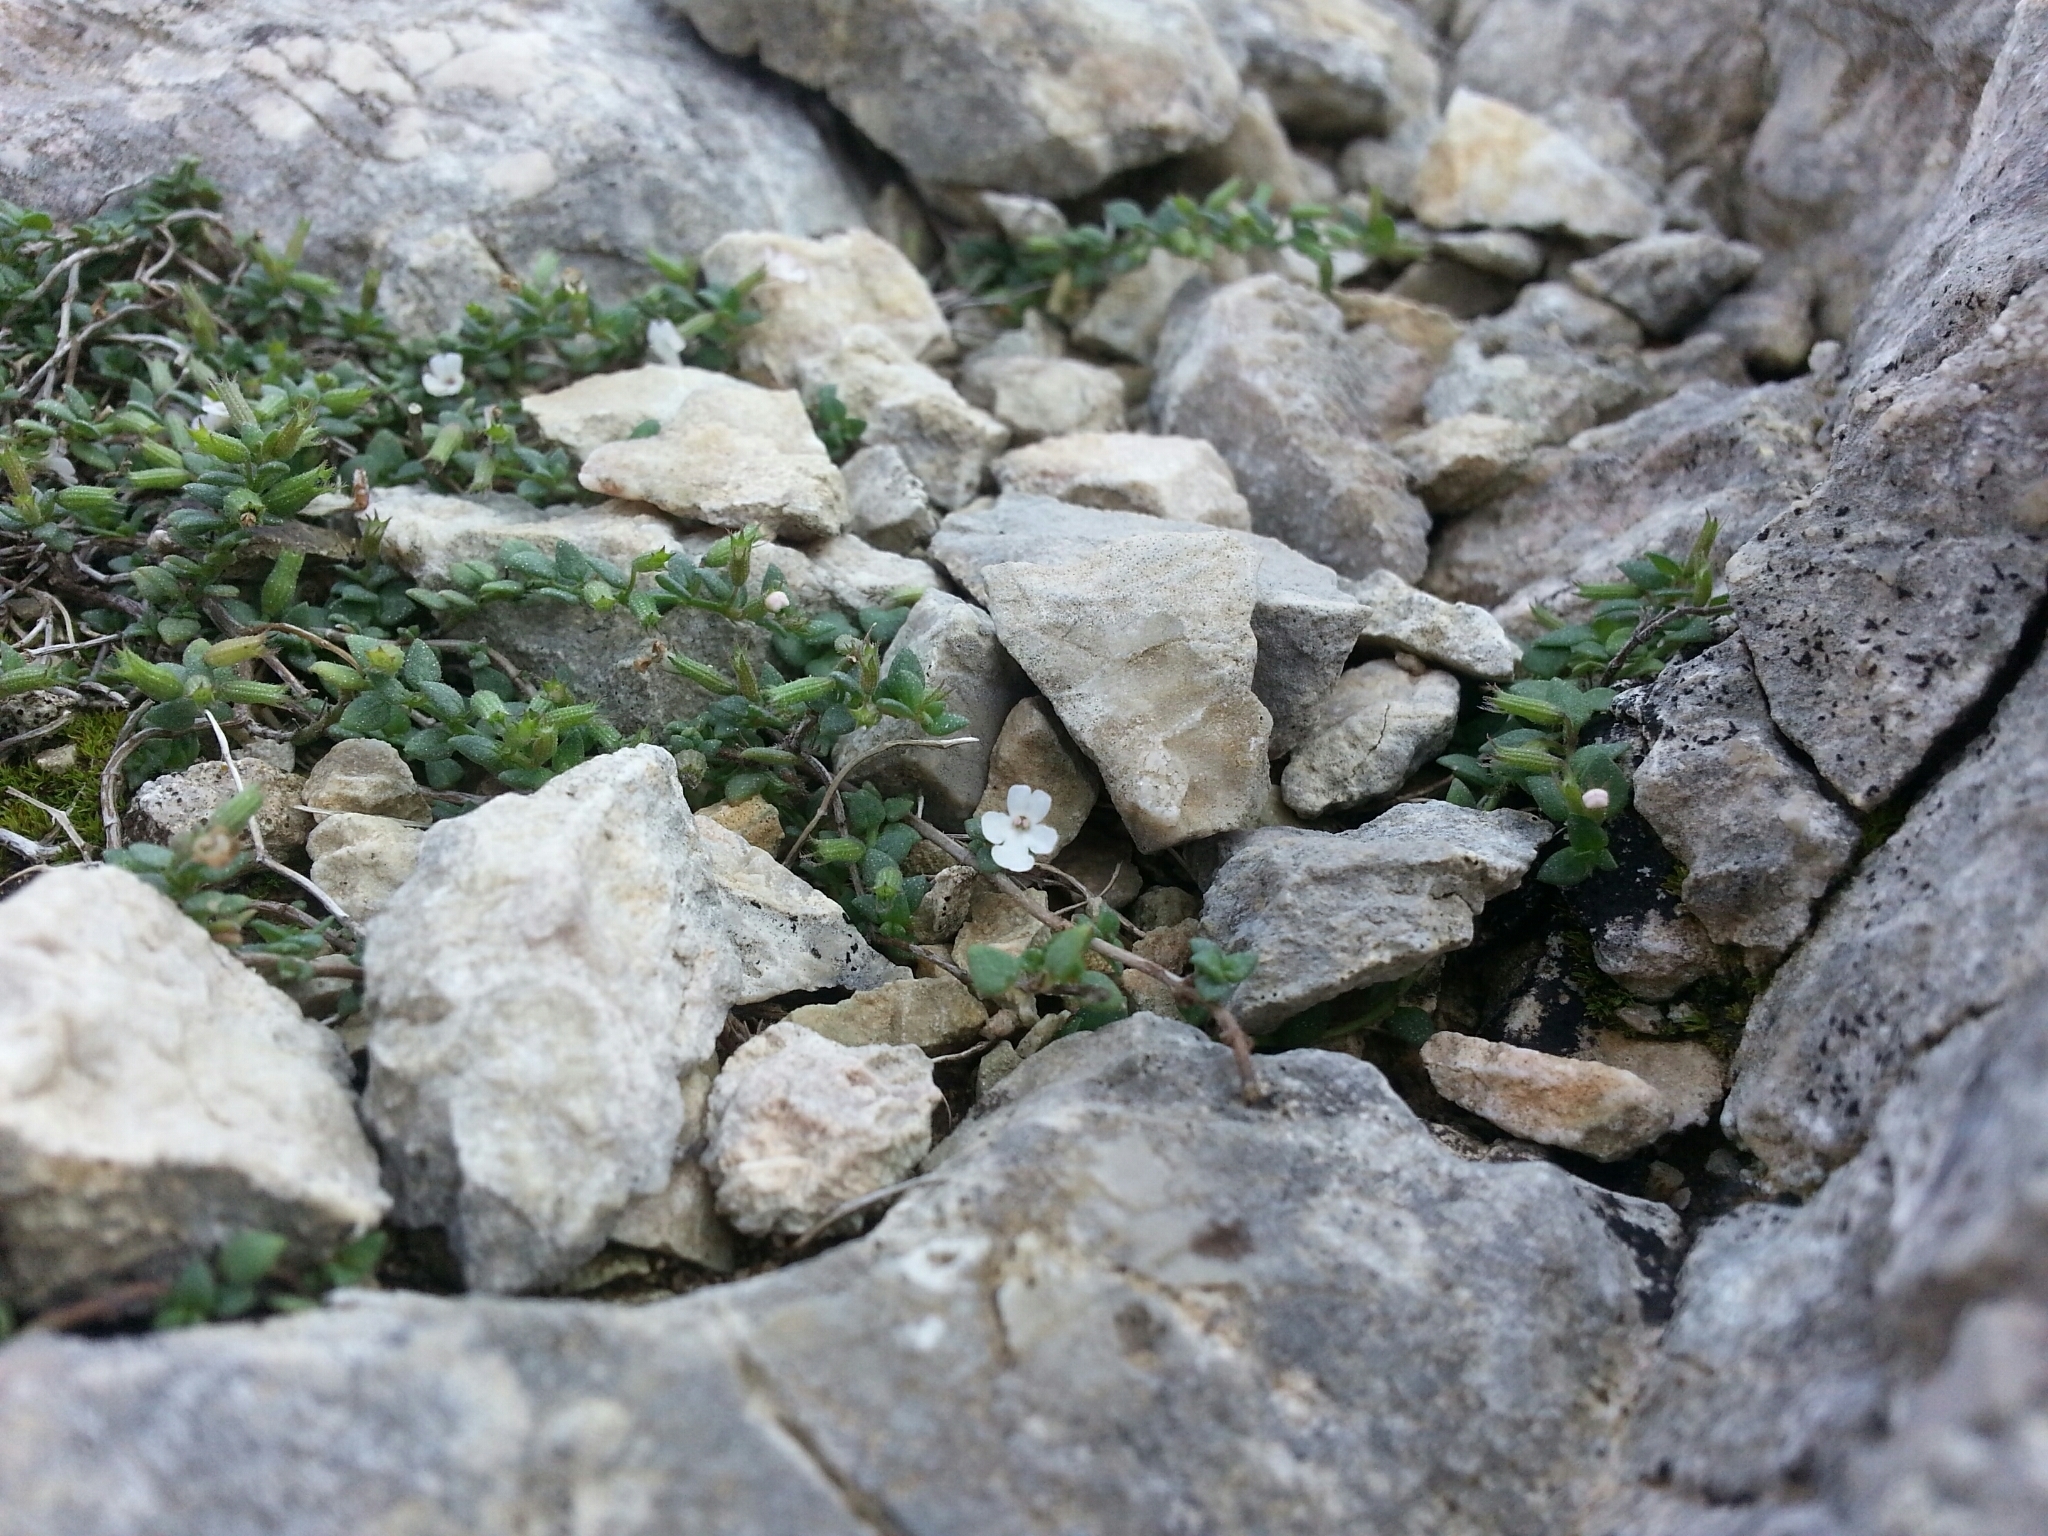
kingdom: Plantae
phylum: Tracheophyta
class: Magnoliopsida
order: Lamiales
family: Lamiaceae
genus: Micromeria
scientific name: Micromeria filiformis
